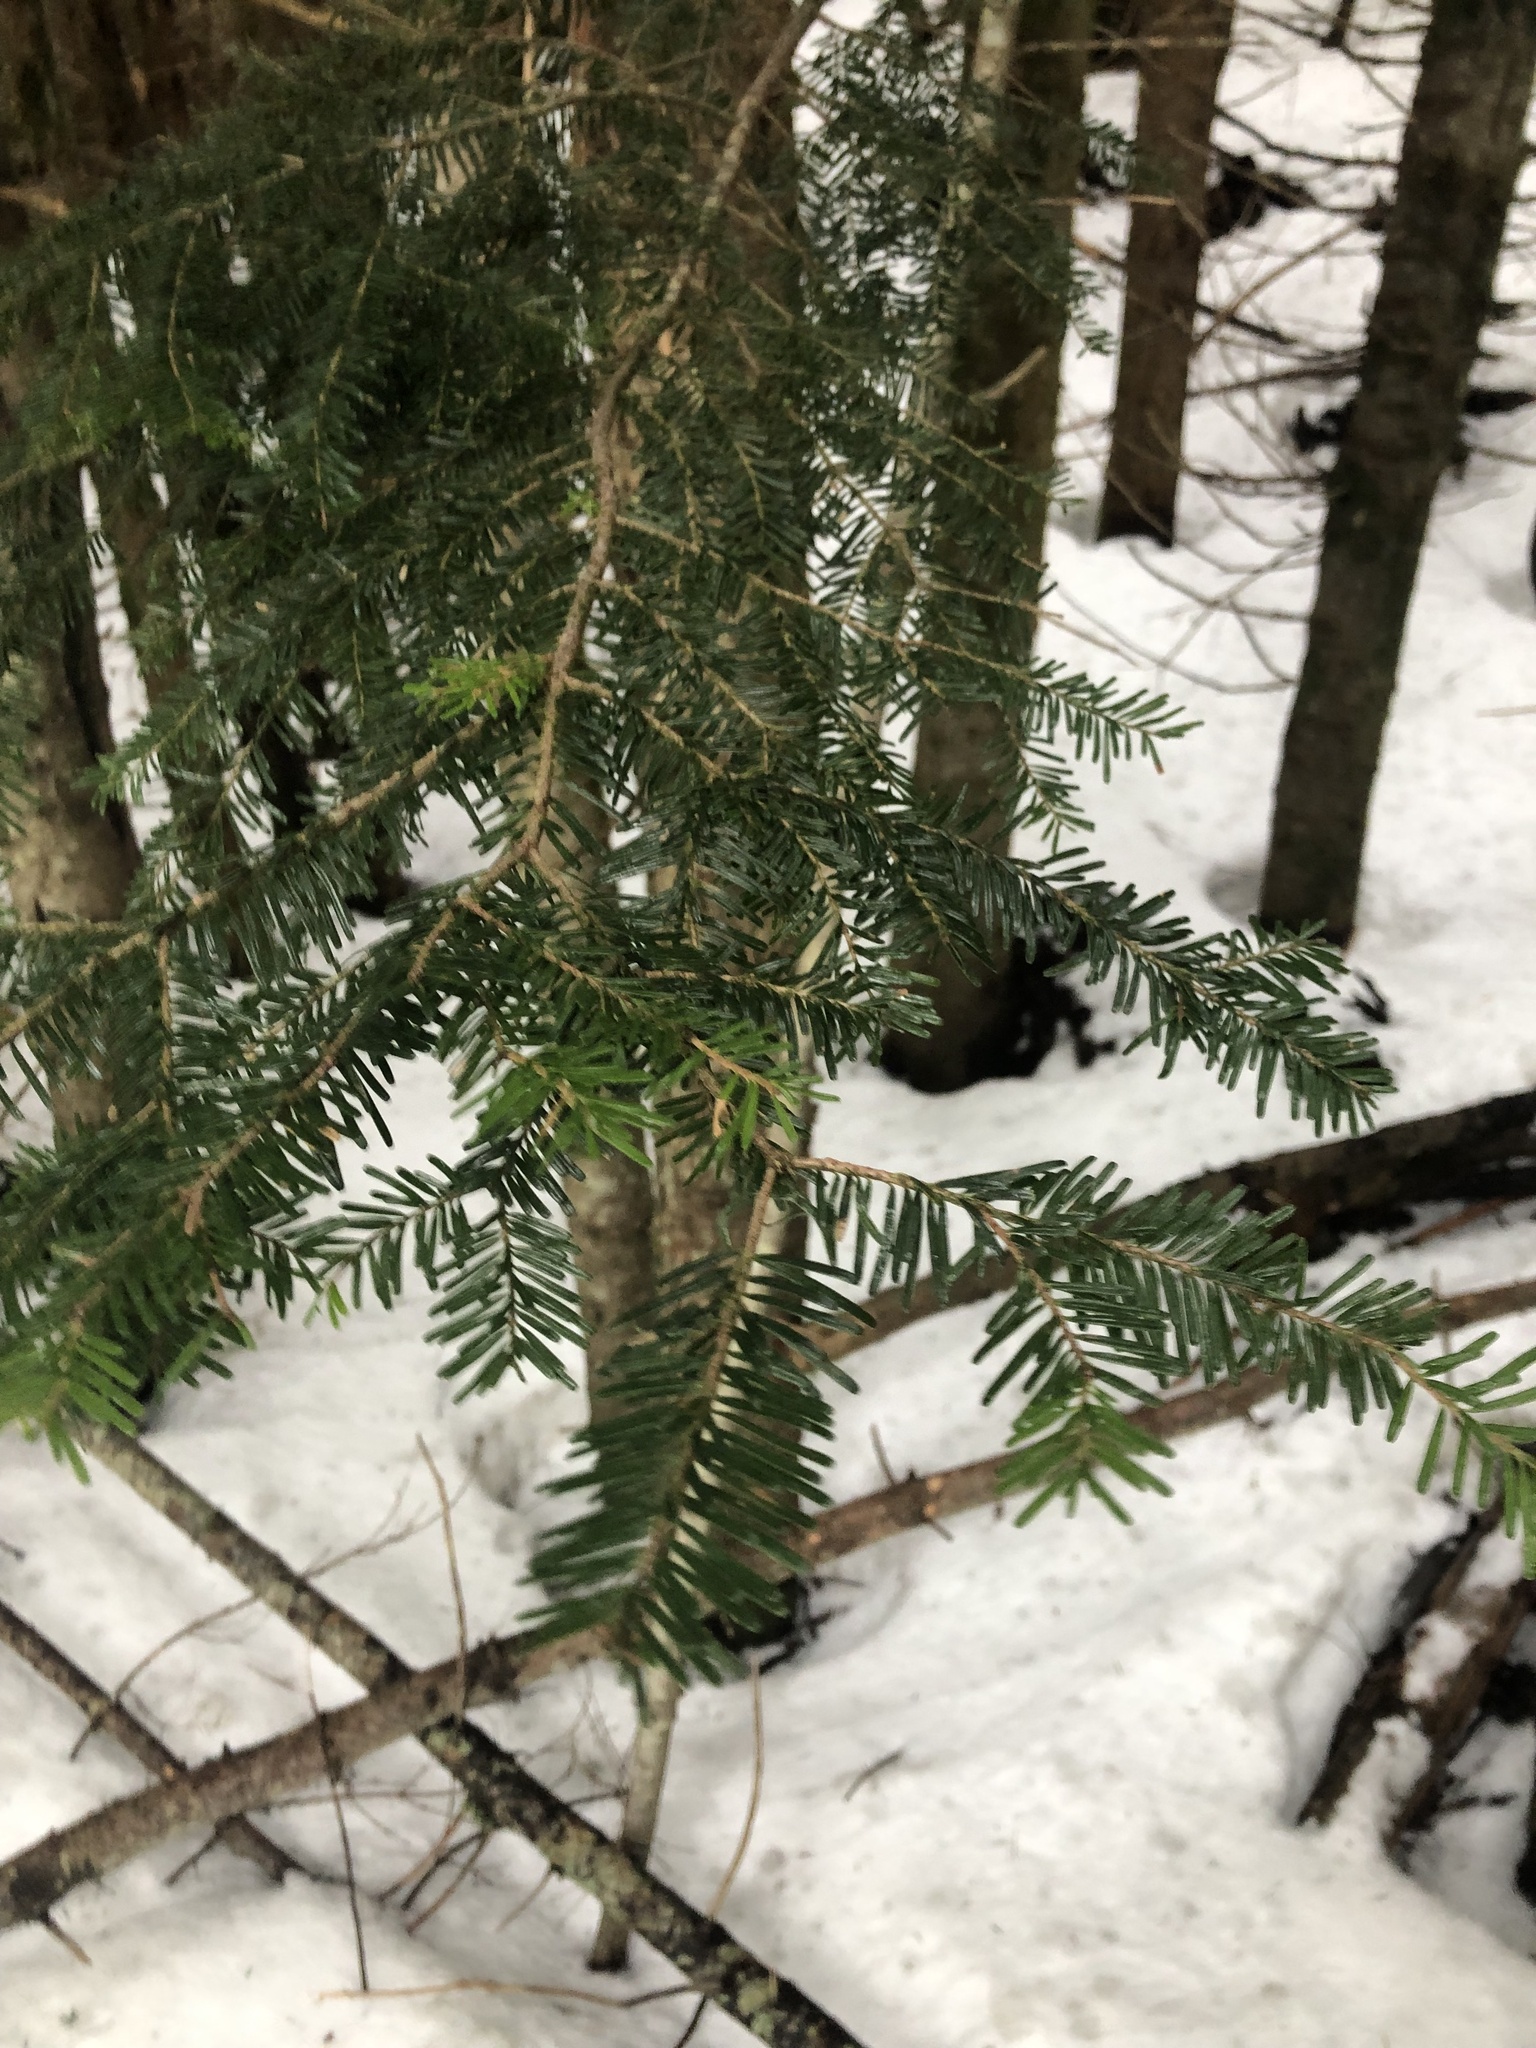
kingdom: Plantae
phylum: Tracheophyta
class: Pinopsida
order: Pinales
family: Pinaceae
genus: Abies
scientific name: Abies amabilis
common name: Pacific silver fir
